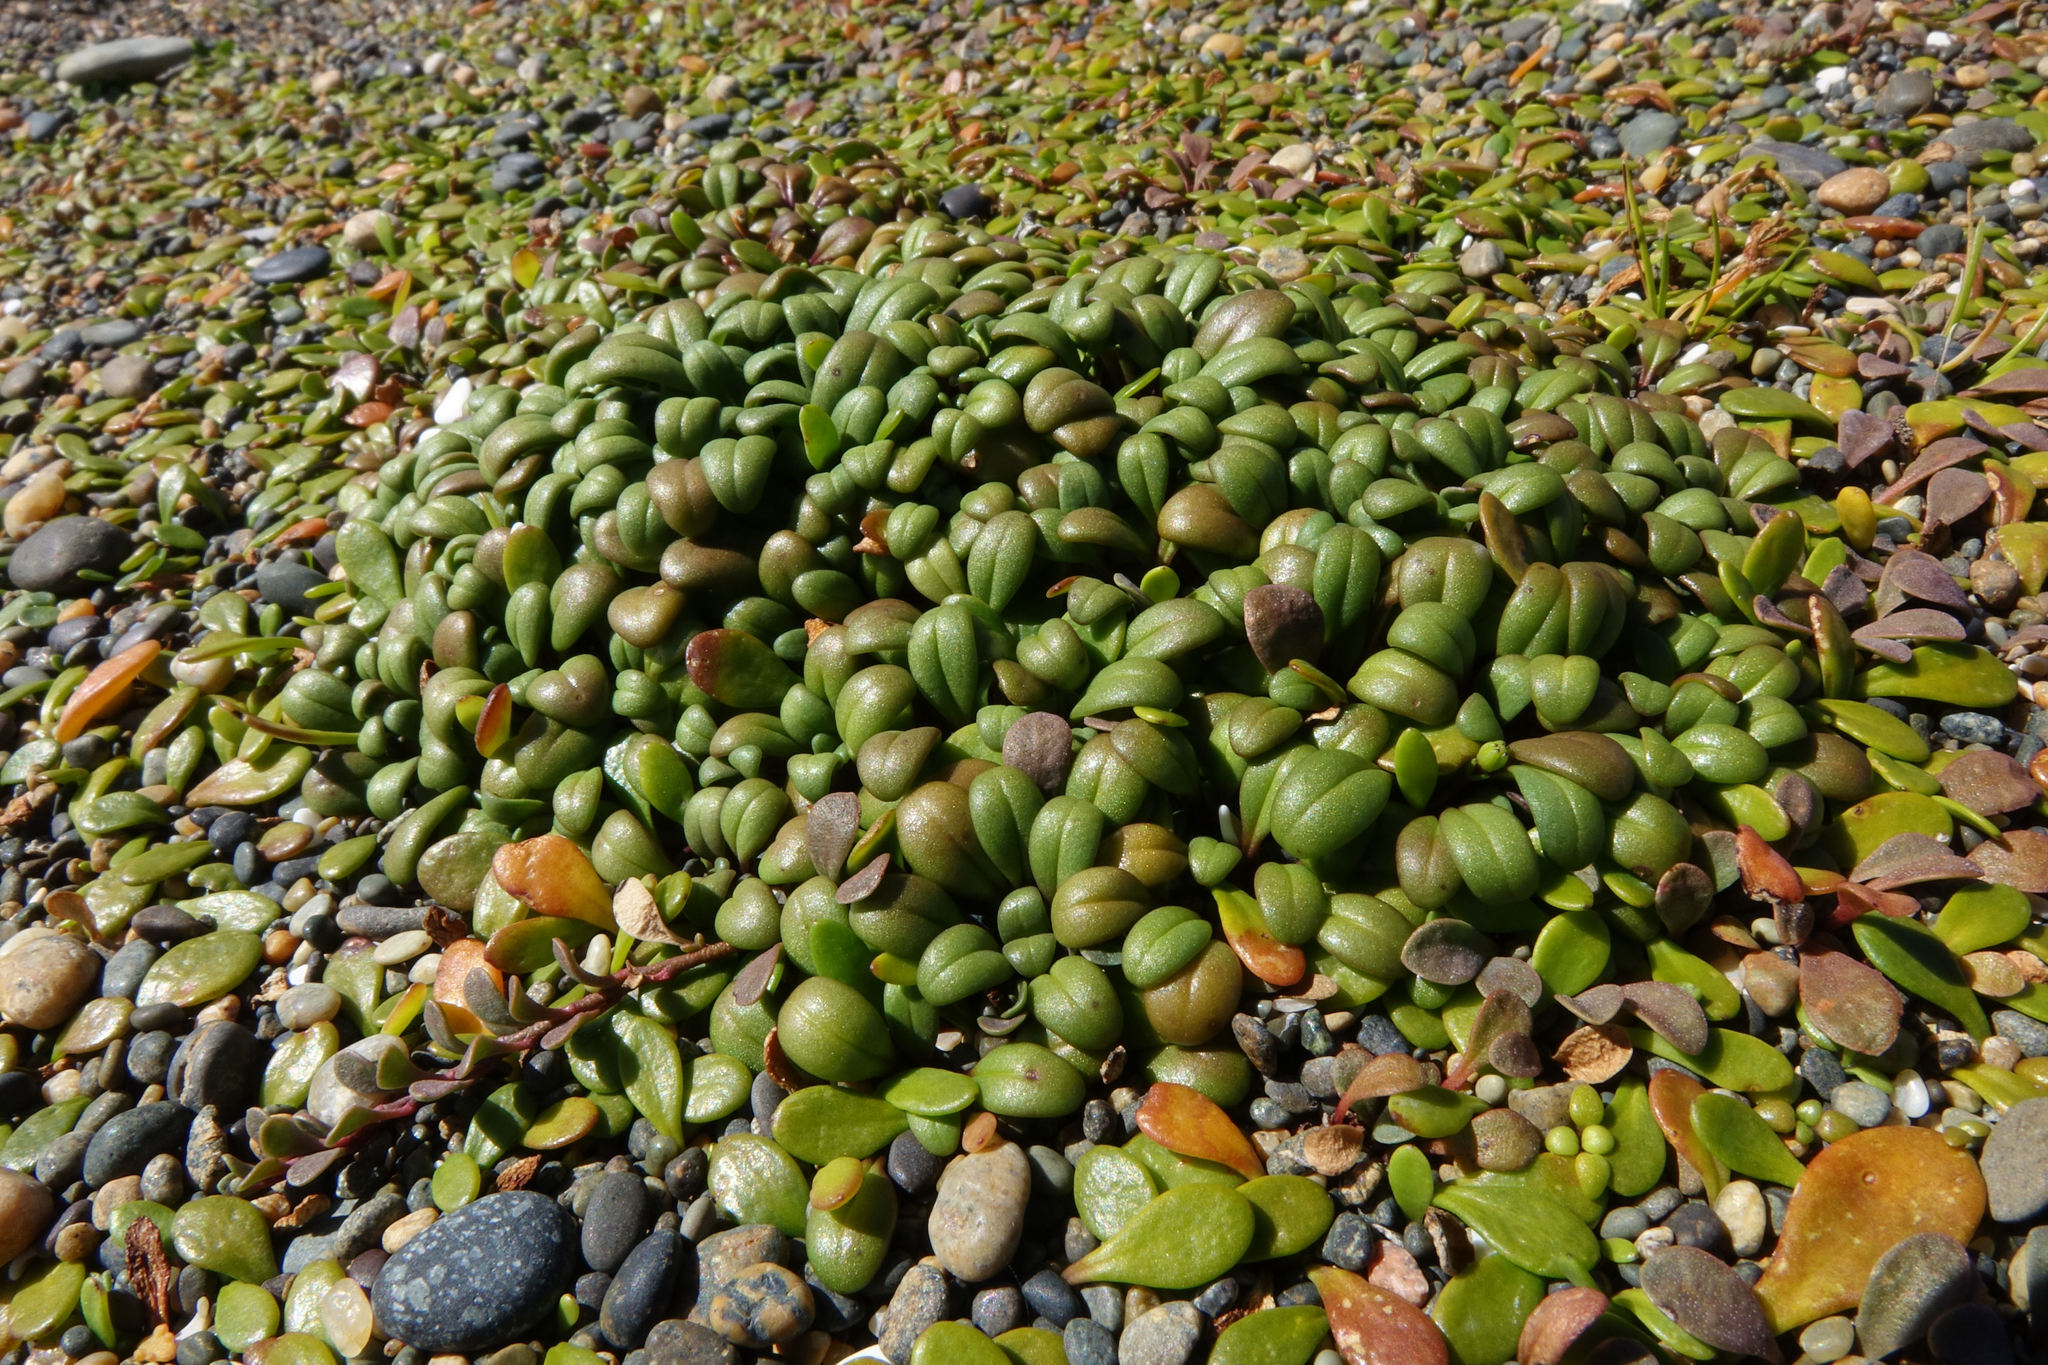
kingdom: Plantae
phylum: Tracheophyta
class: Magnoliopsida
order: Gentianales
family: Gentianaceae
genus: Gentianella
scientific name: Gentianella saxosa
